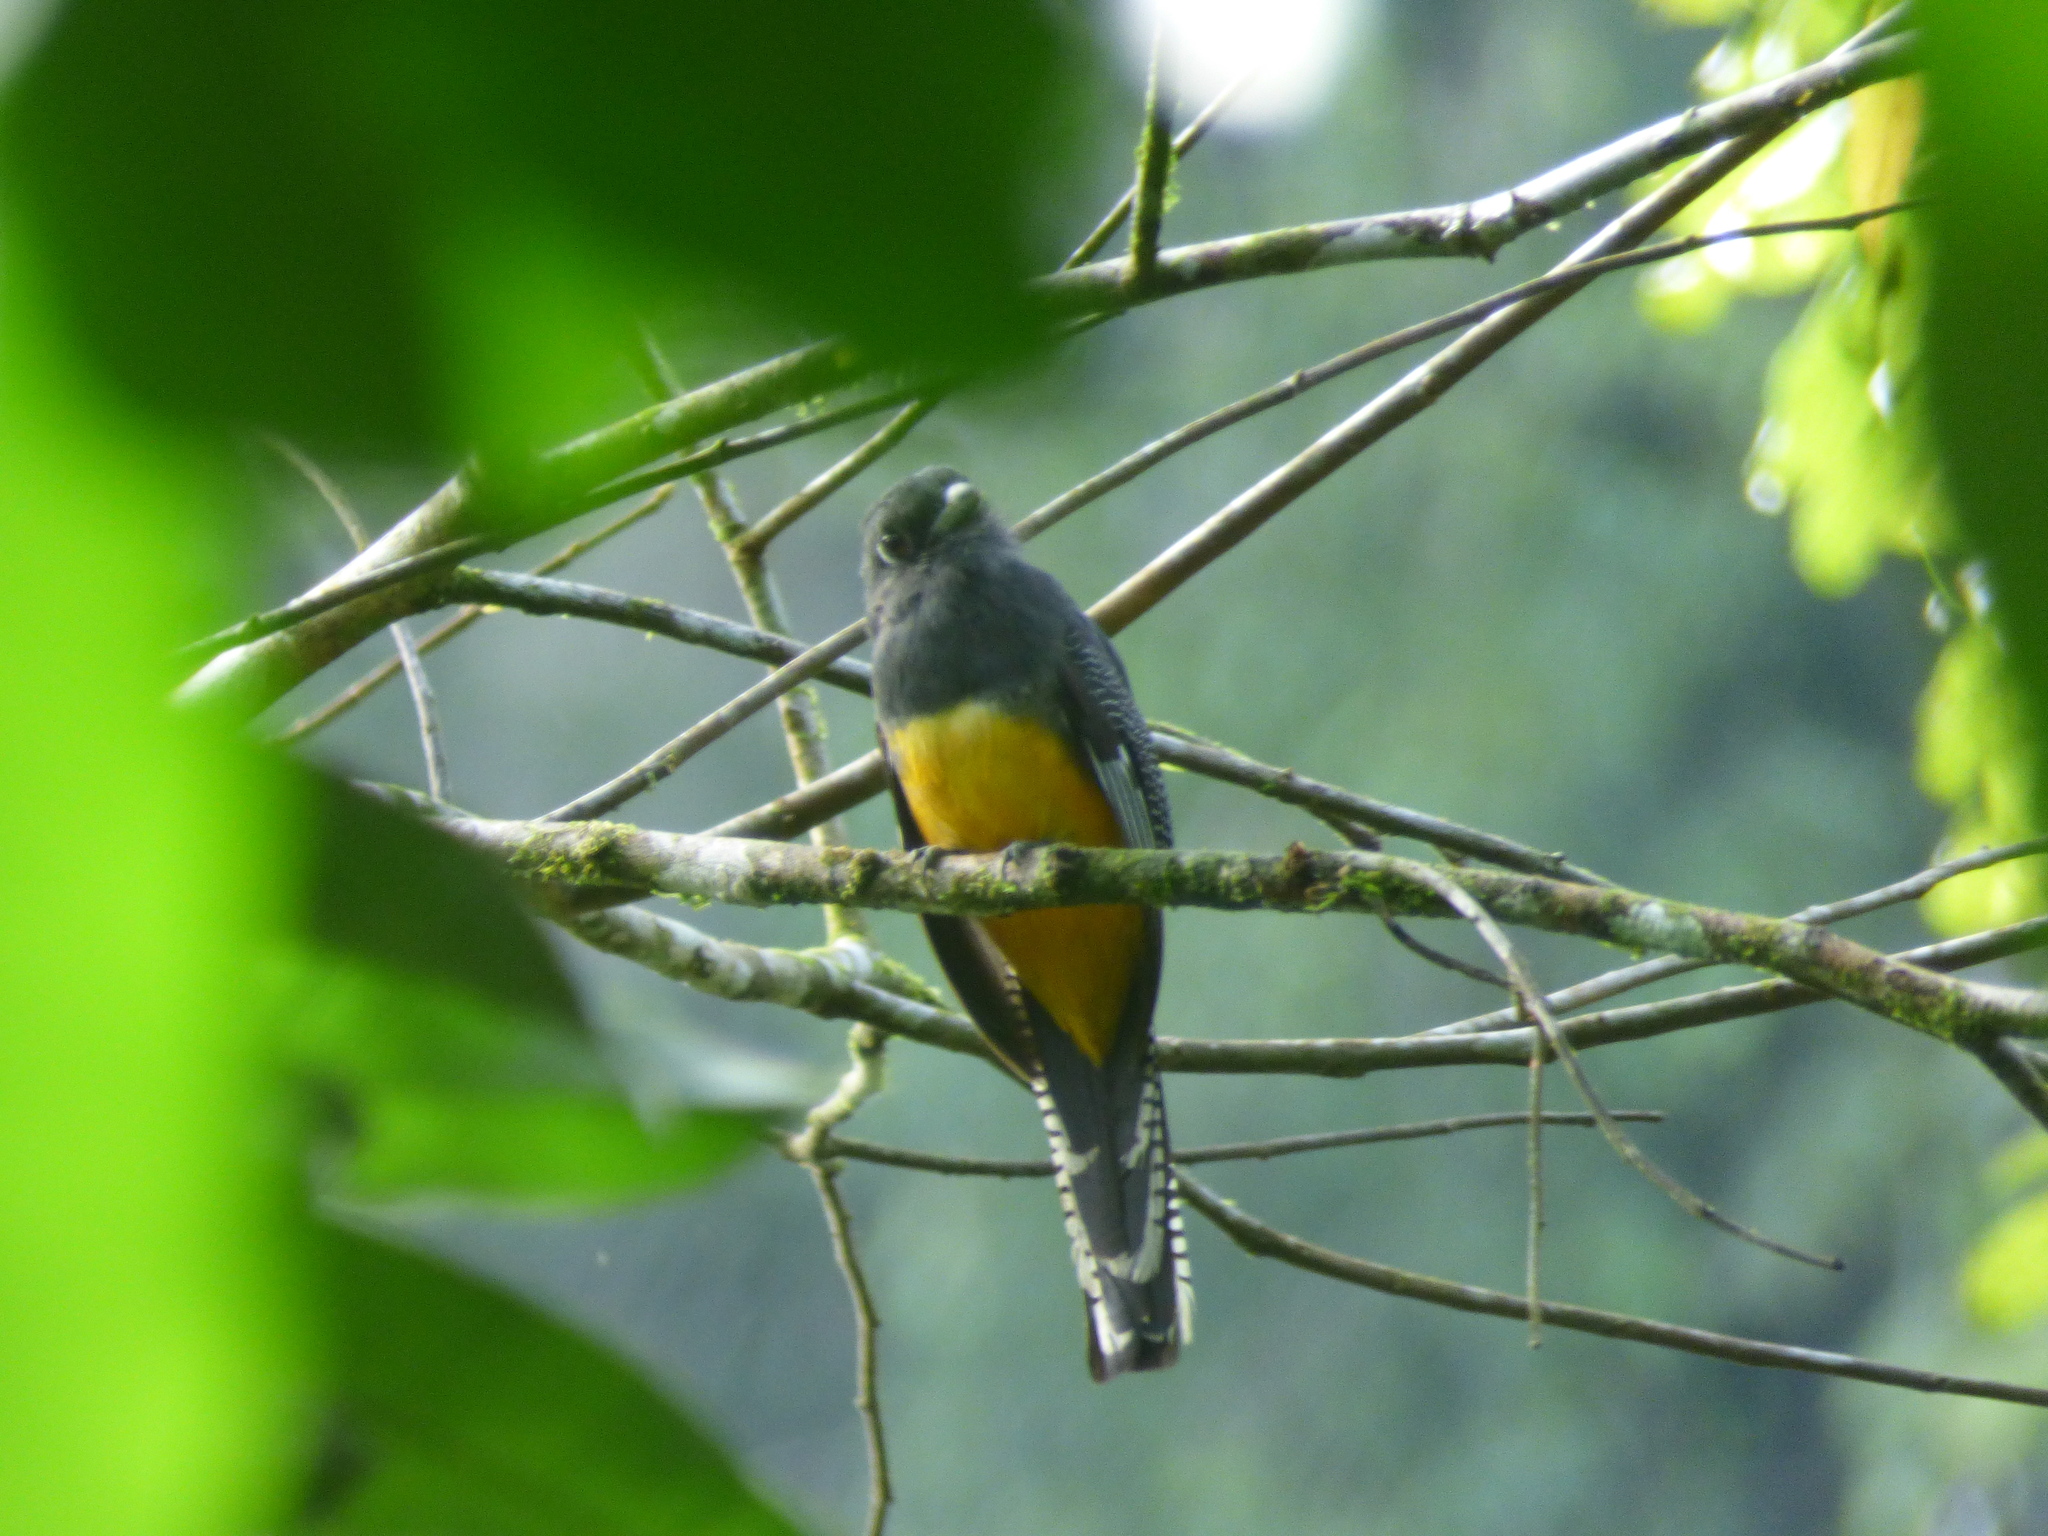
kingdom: Animalia
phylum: Chordata
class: Aves
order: Trogoniformes
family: Trogonidae
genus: Trogon
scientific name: Trogon caligatus
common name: Gartered trogon
